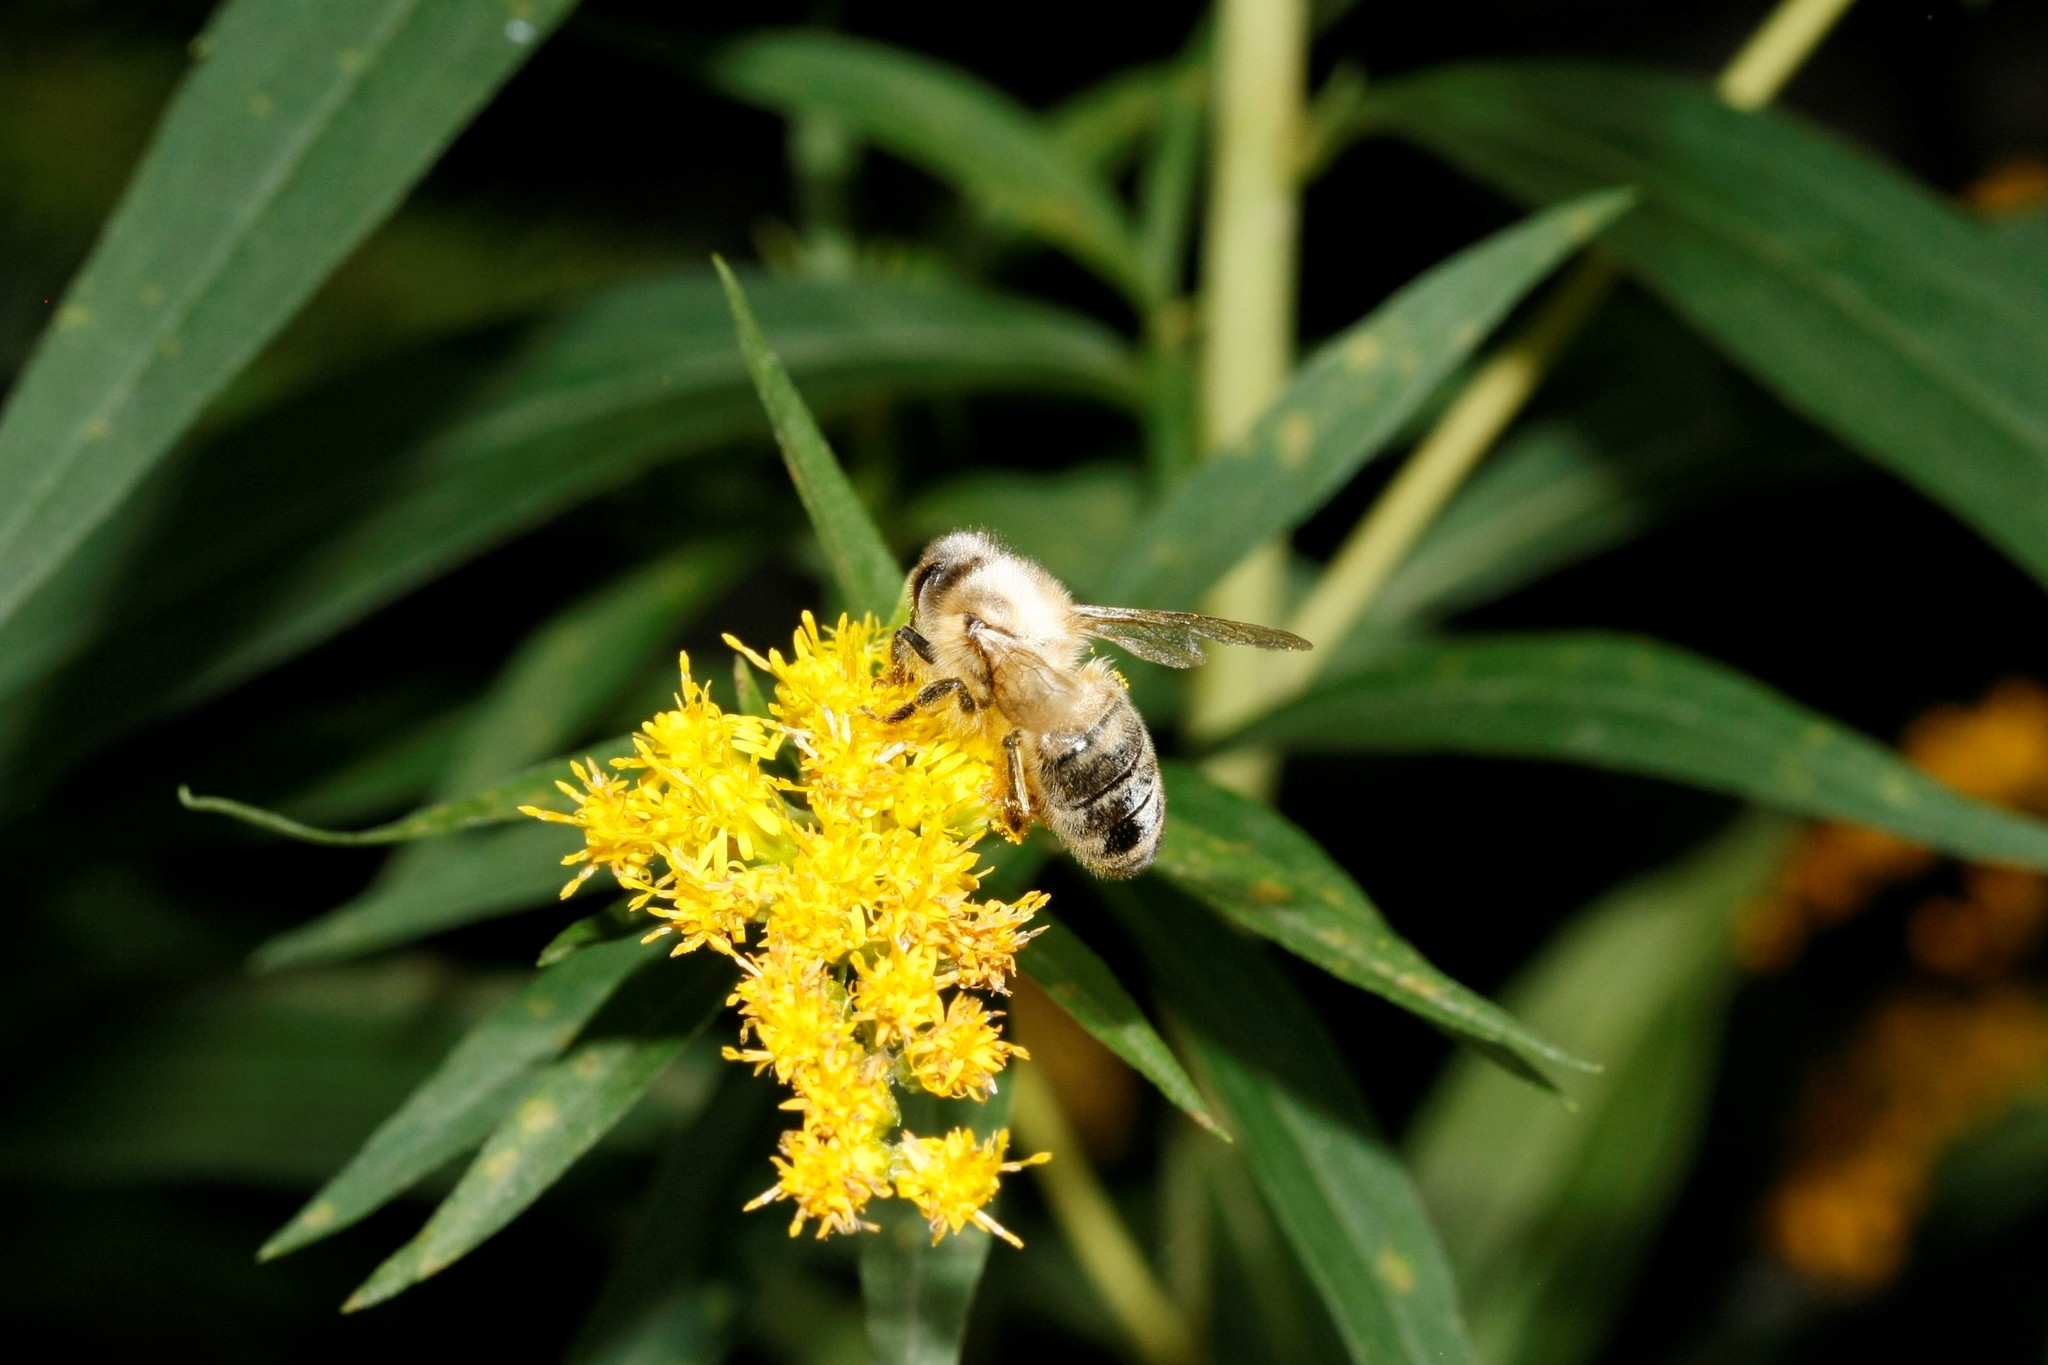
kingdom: Animalia
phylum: Arthropoda
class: Insecta
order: Hymenoptera
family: Apidae
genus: Apis
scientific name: Apis mellifera
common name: Honey bee
